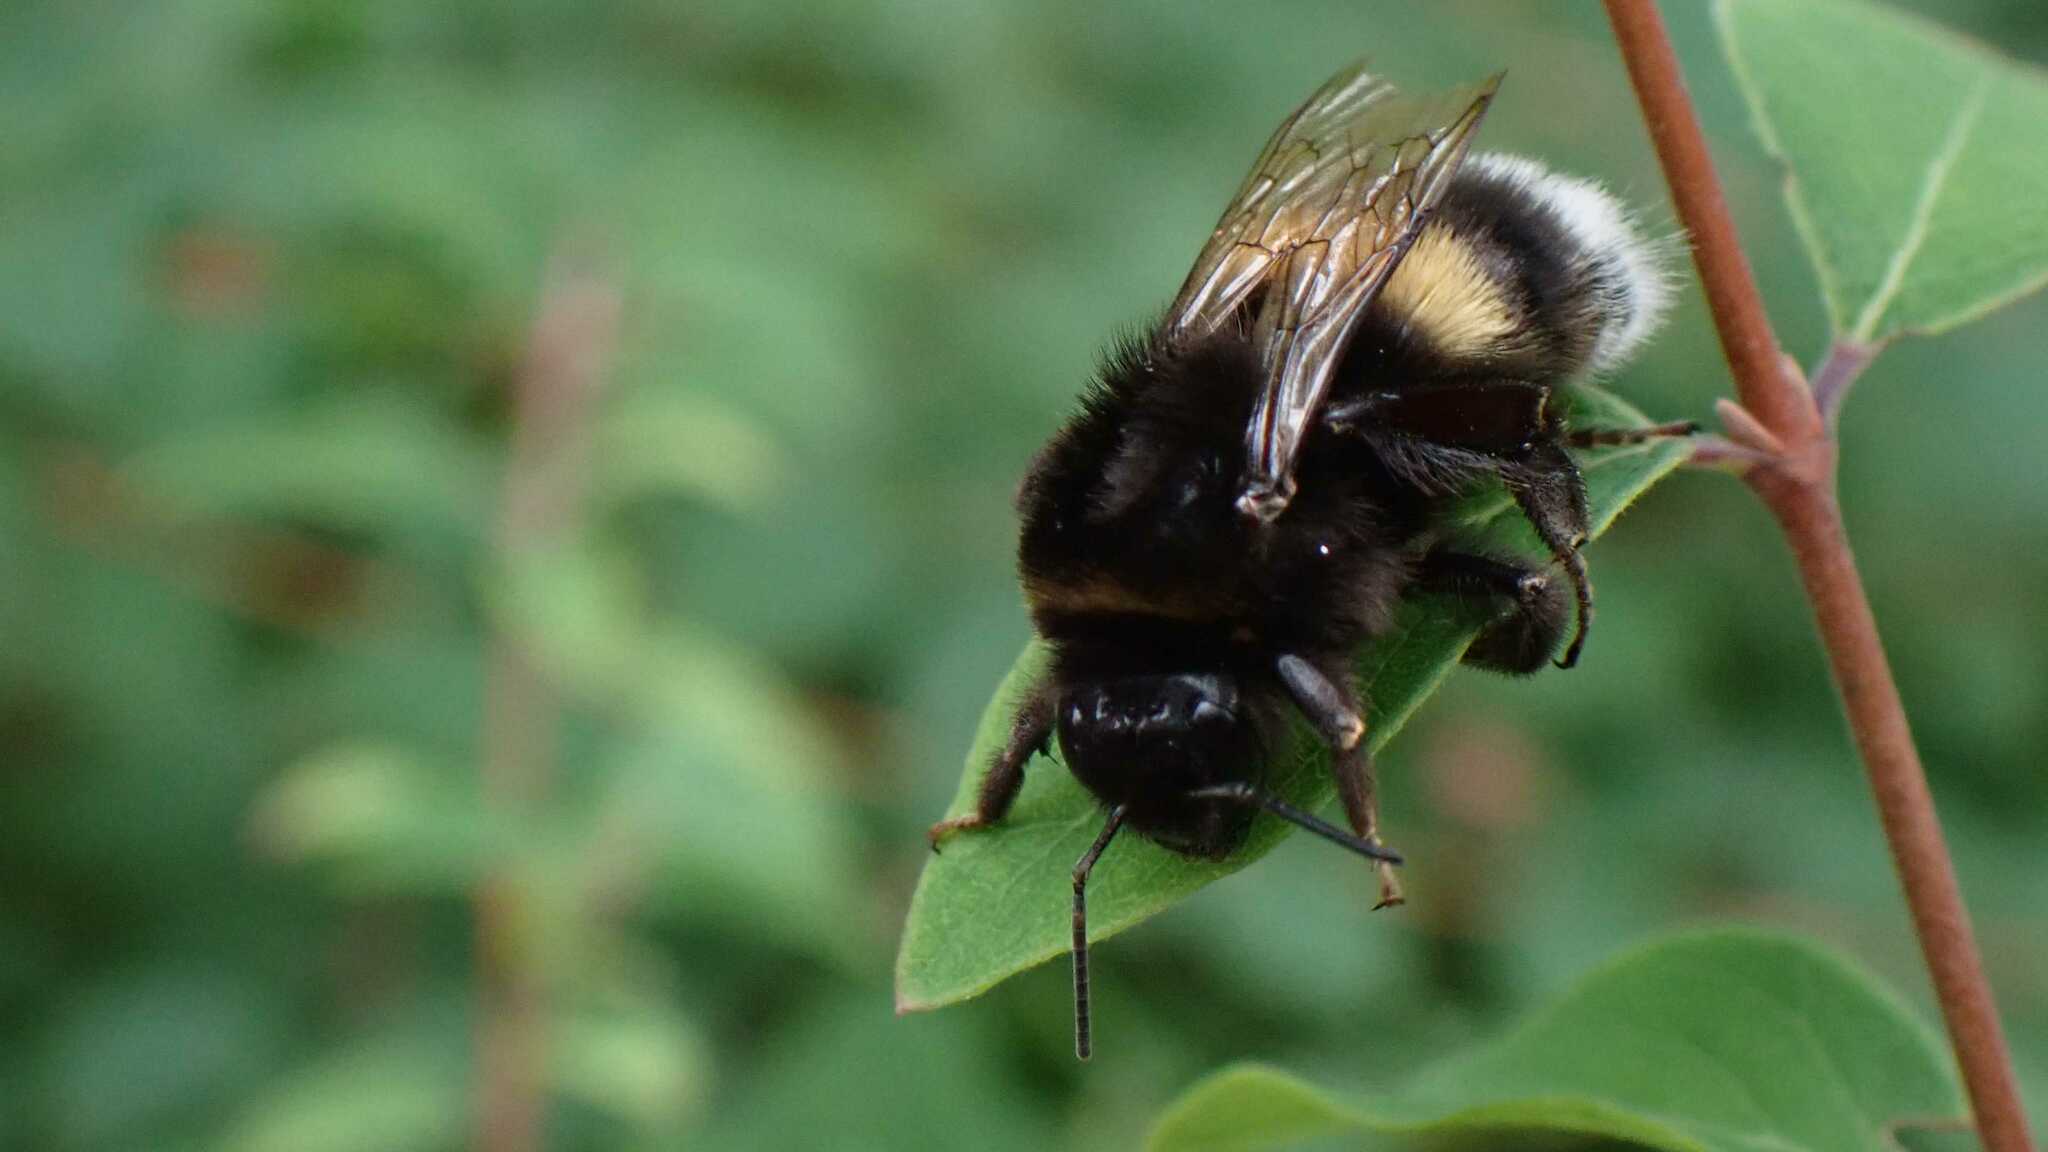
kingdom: Animalia
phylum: Arthropoda
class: Insecta
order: Hymenoptera
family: Apidae
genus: Bombus
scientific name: Bombus
